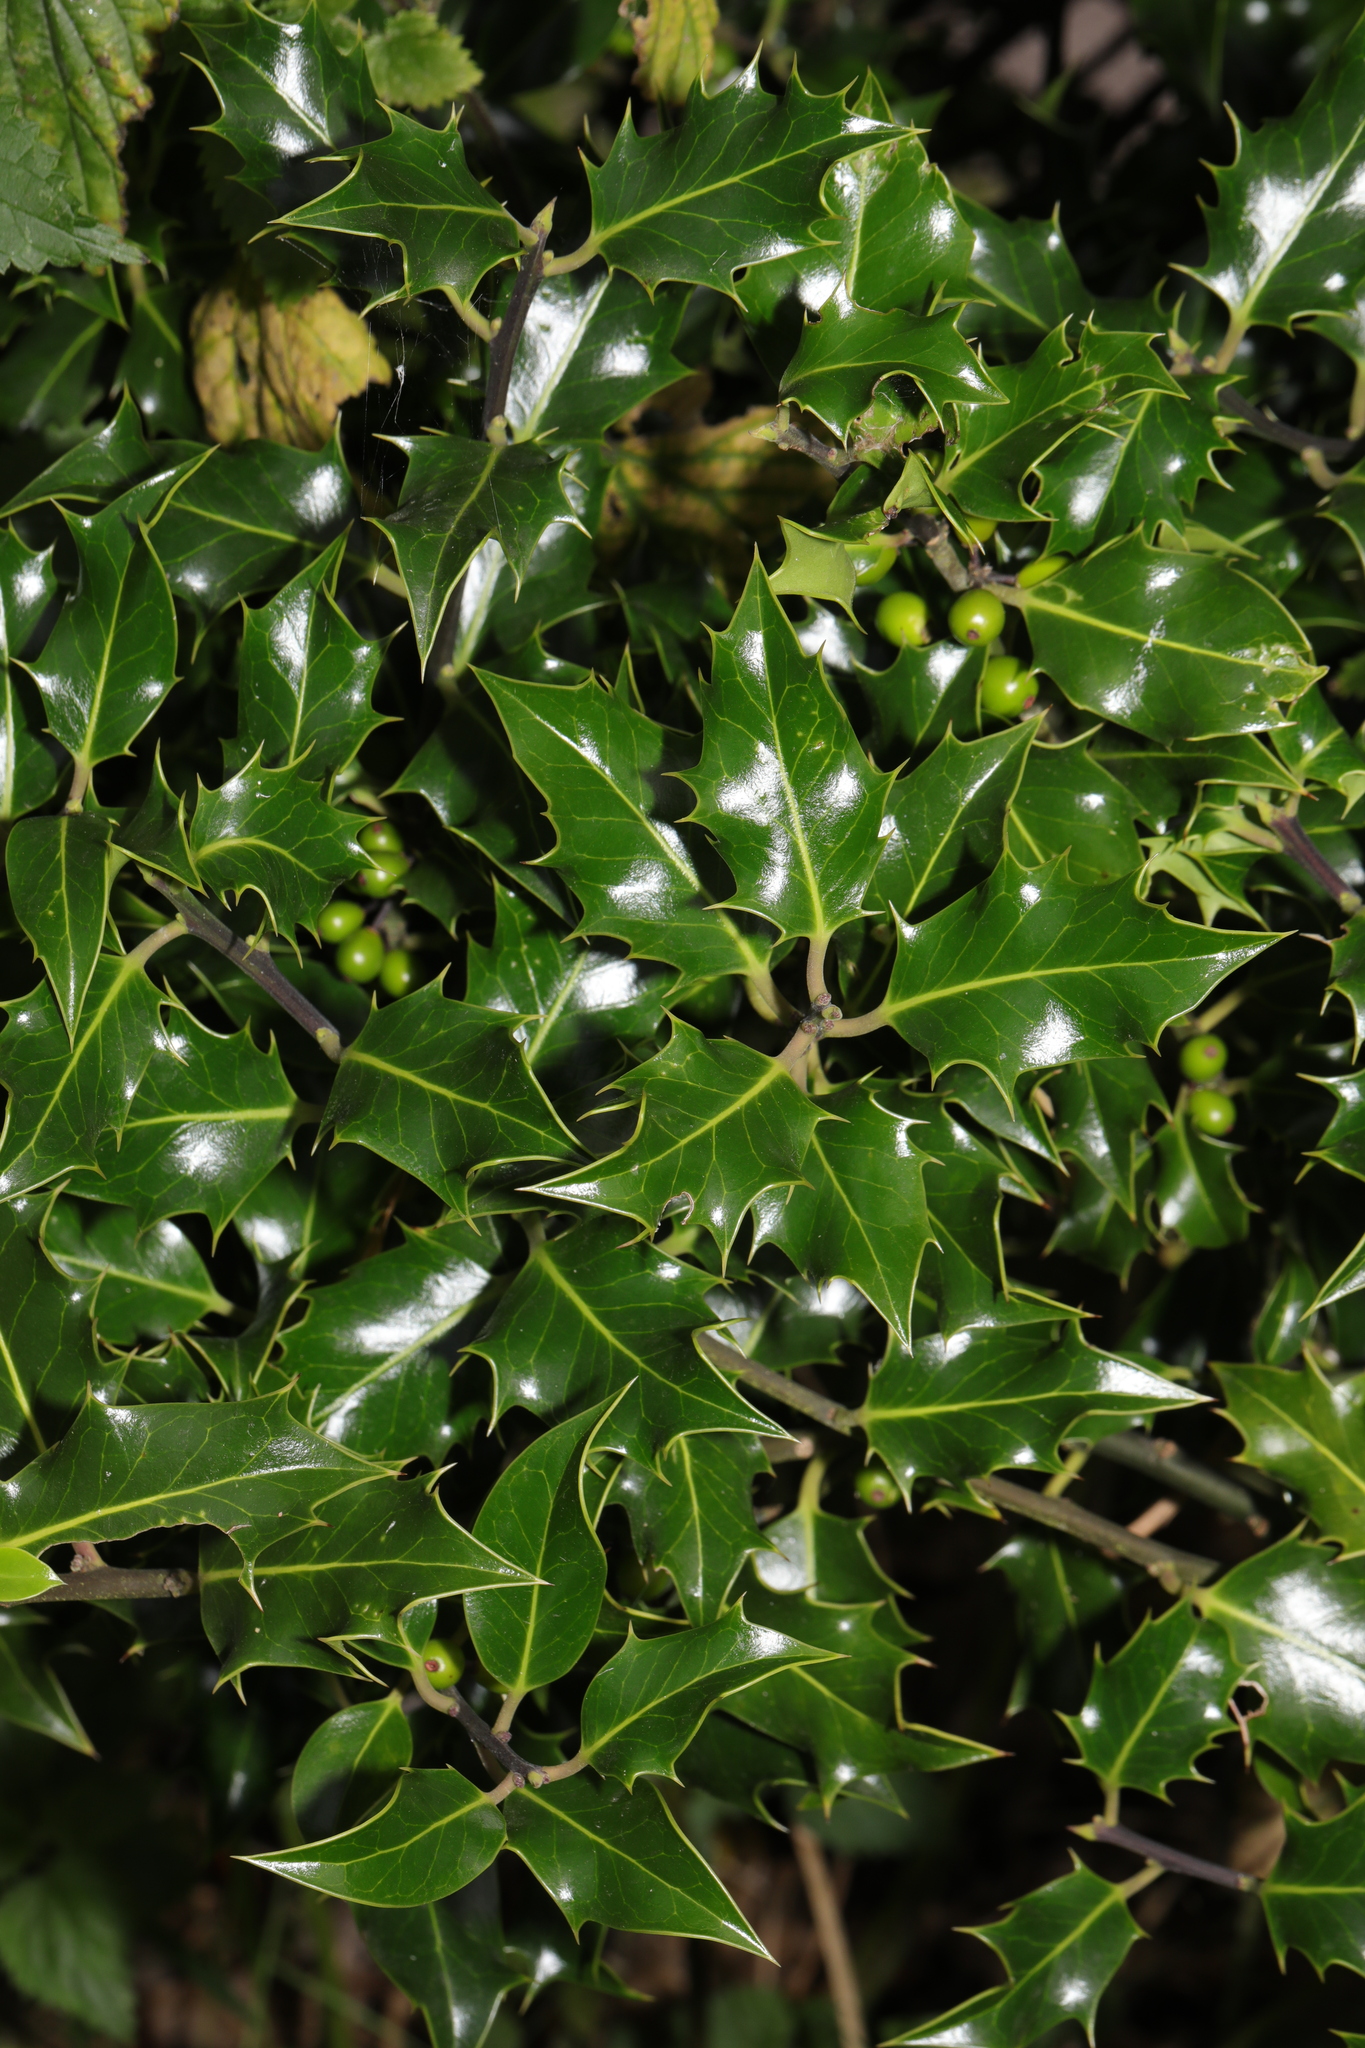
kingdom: Plantae
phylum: Tracheophyta
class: Magnoliopsida
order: Aquifoliales
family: Aquifoliaceae
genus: Ilex
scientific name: Ilex aquifolium
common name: English holly
